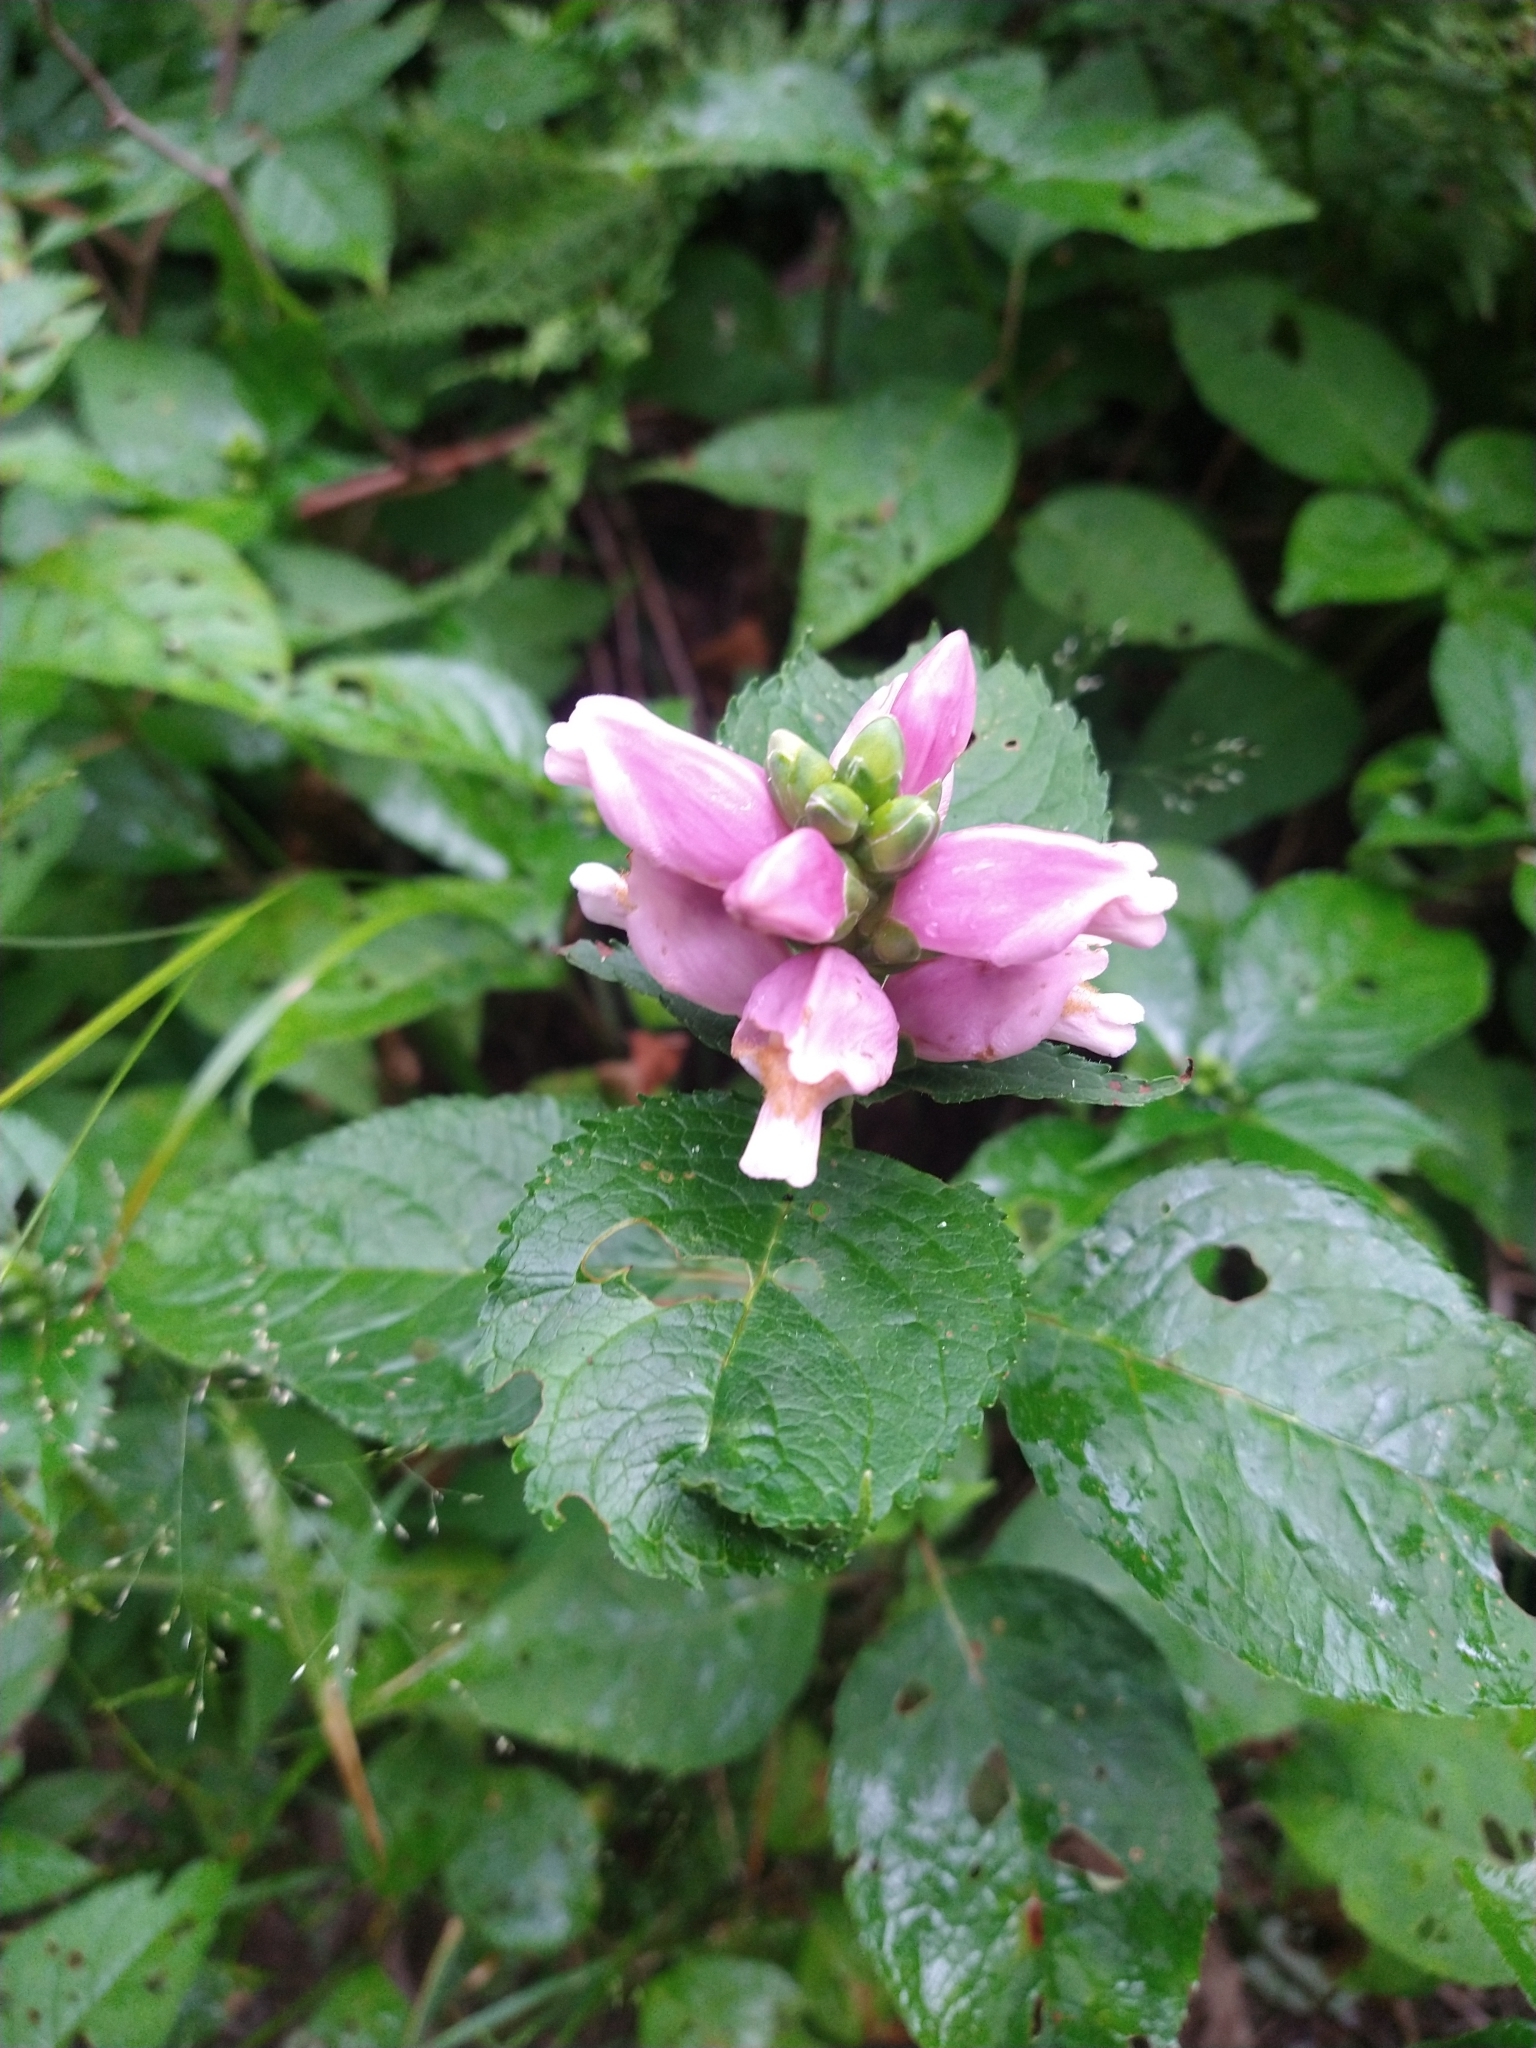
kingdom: Plantae
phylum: Tracheophyta
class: Magnoliopsida
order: Lamiales
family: Plantaginaceae
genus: Chelone
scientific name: Chelone lyonii
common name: Pink turtlehead
